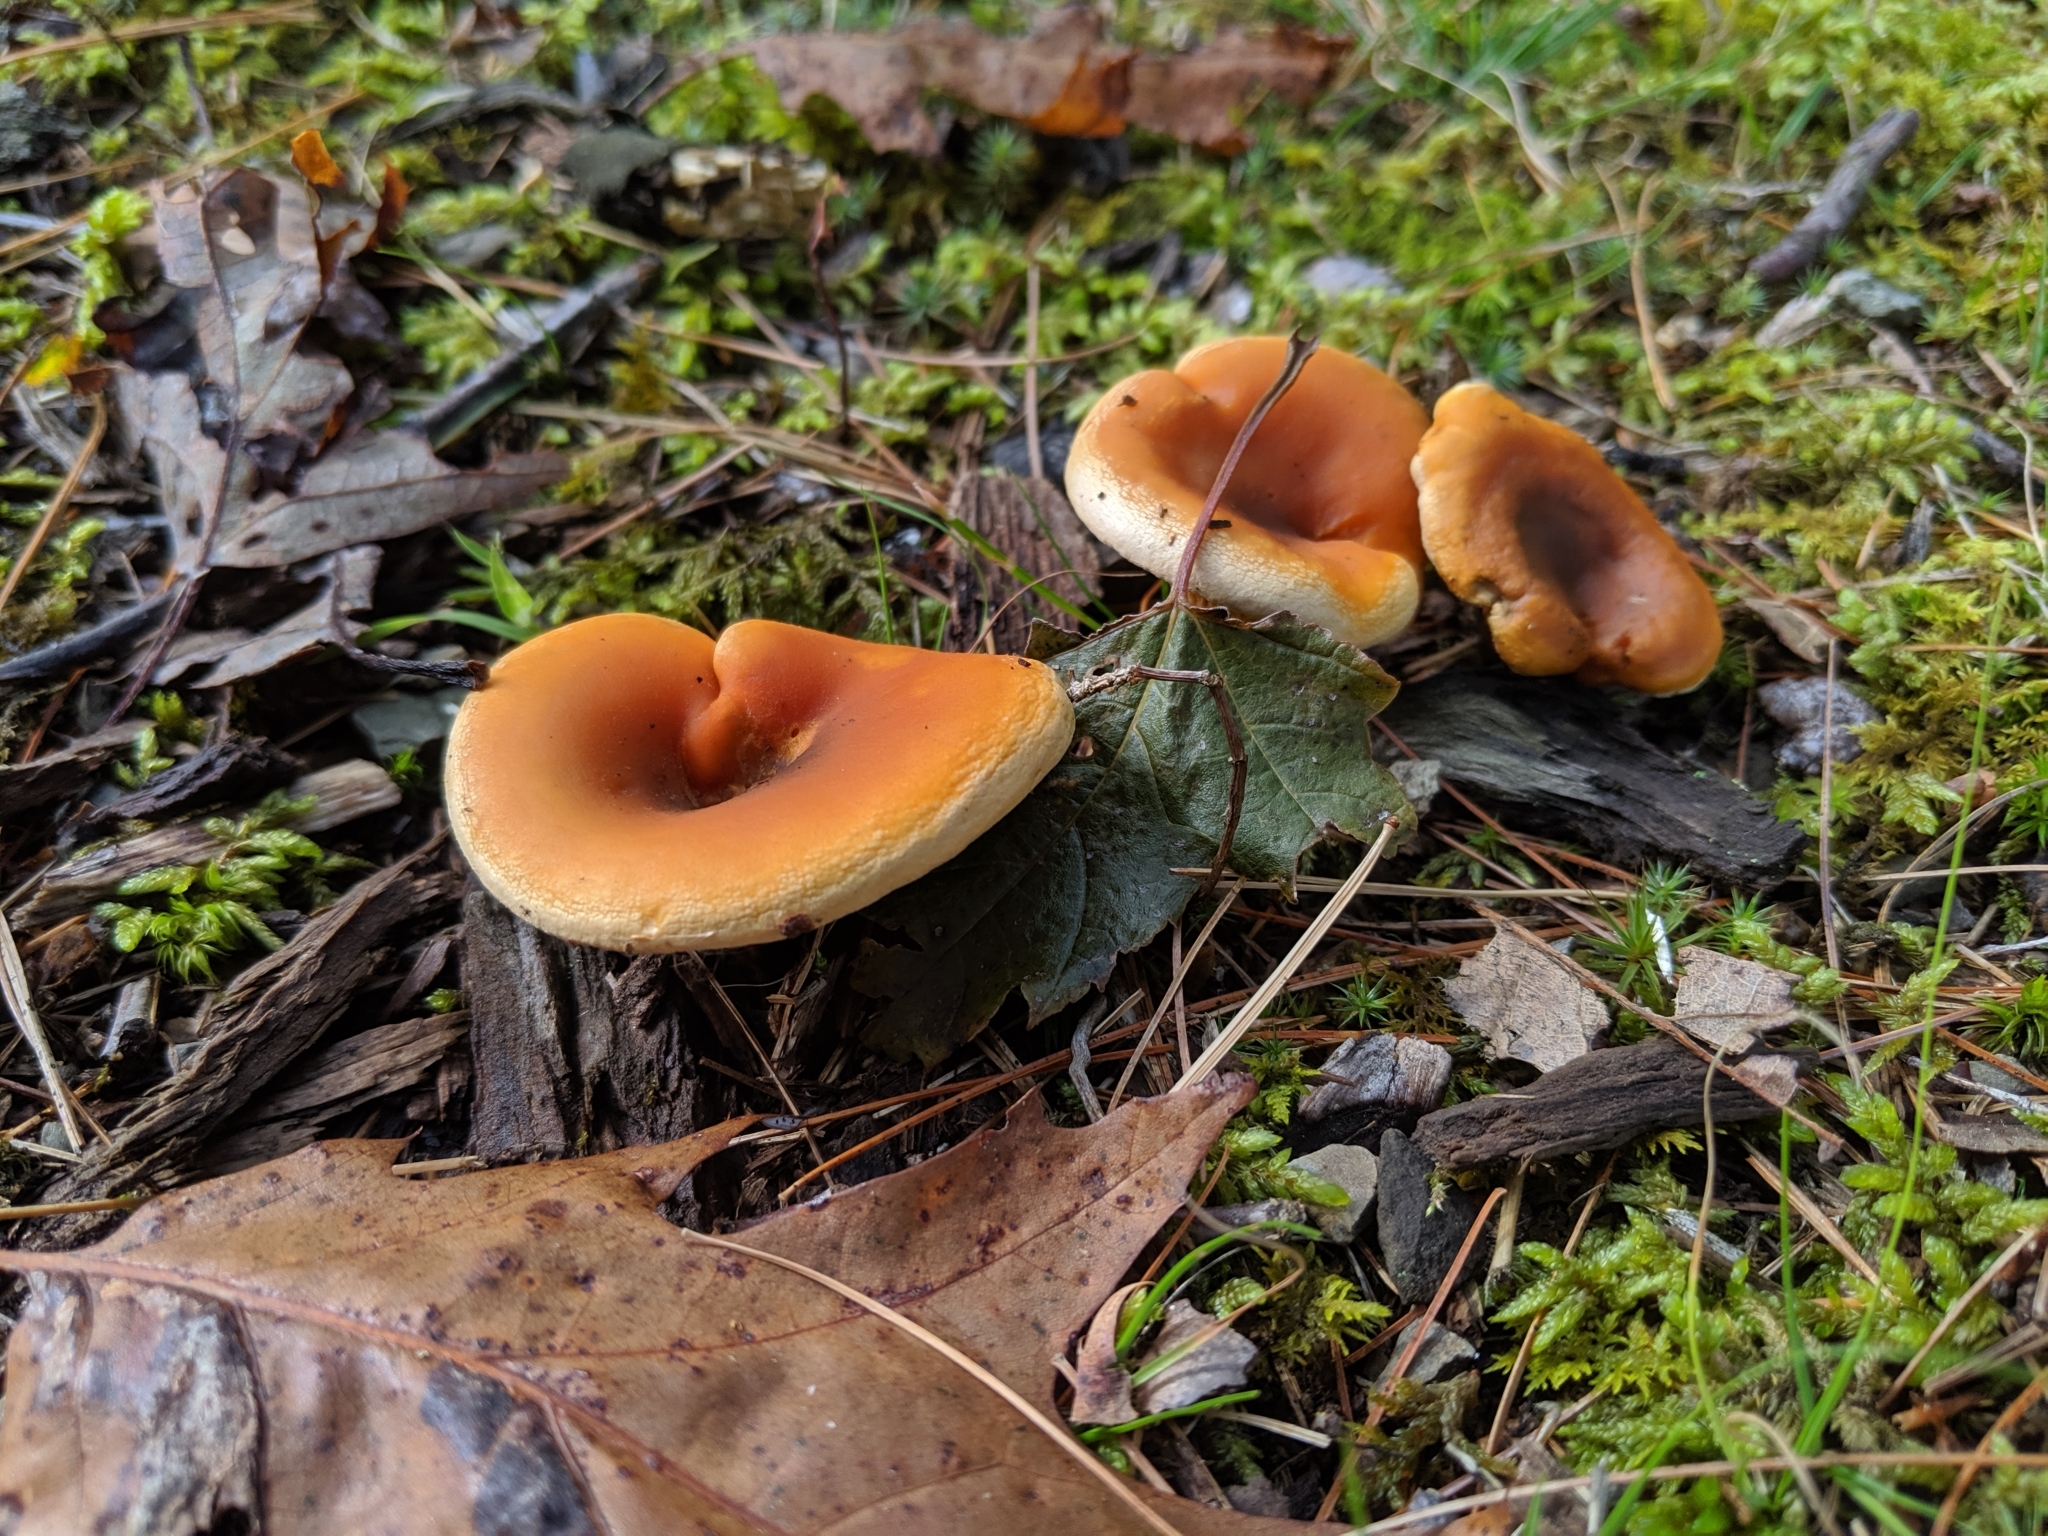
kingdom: Fungi
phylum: Basidiomycota
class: Agaricomycetes
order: Boletales
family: Hygrophoropsidaceae
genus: Hygrophoropsis
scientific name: Hygrophoropsis aurantiaca
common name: False chanterelle
